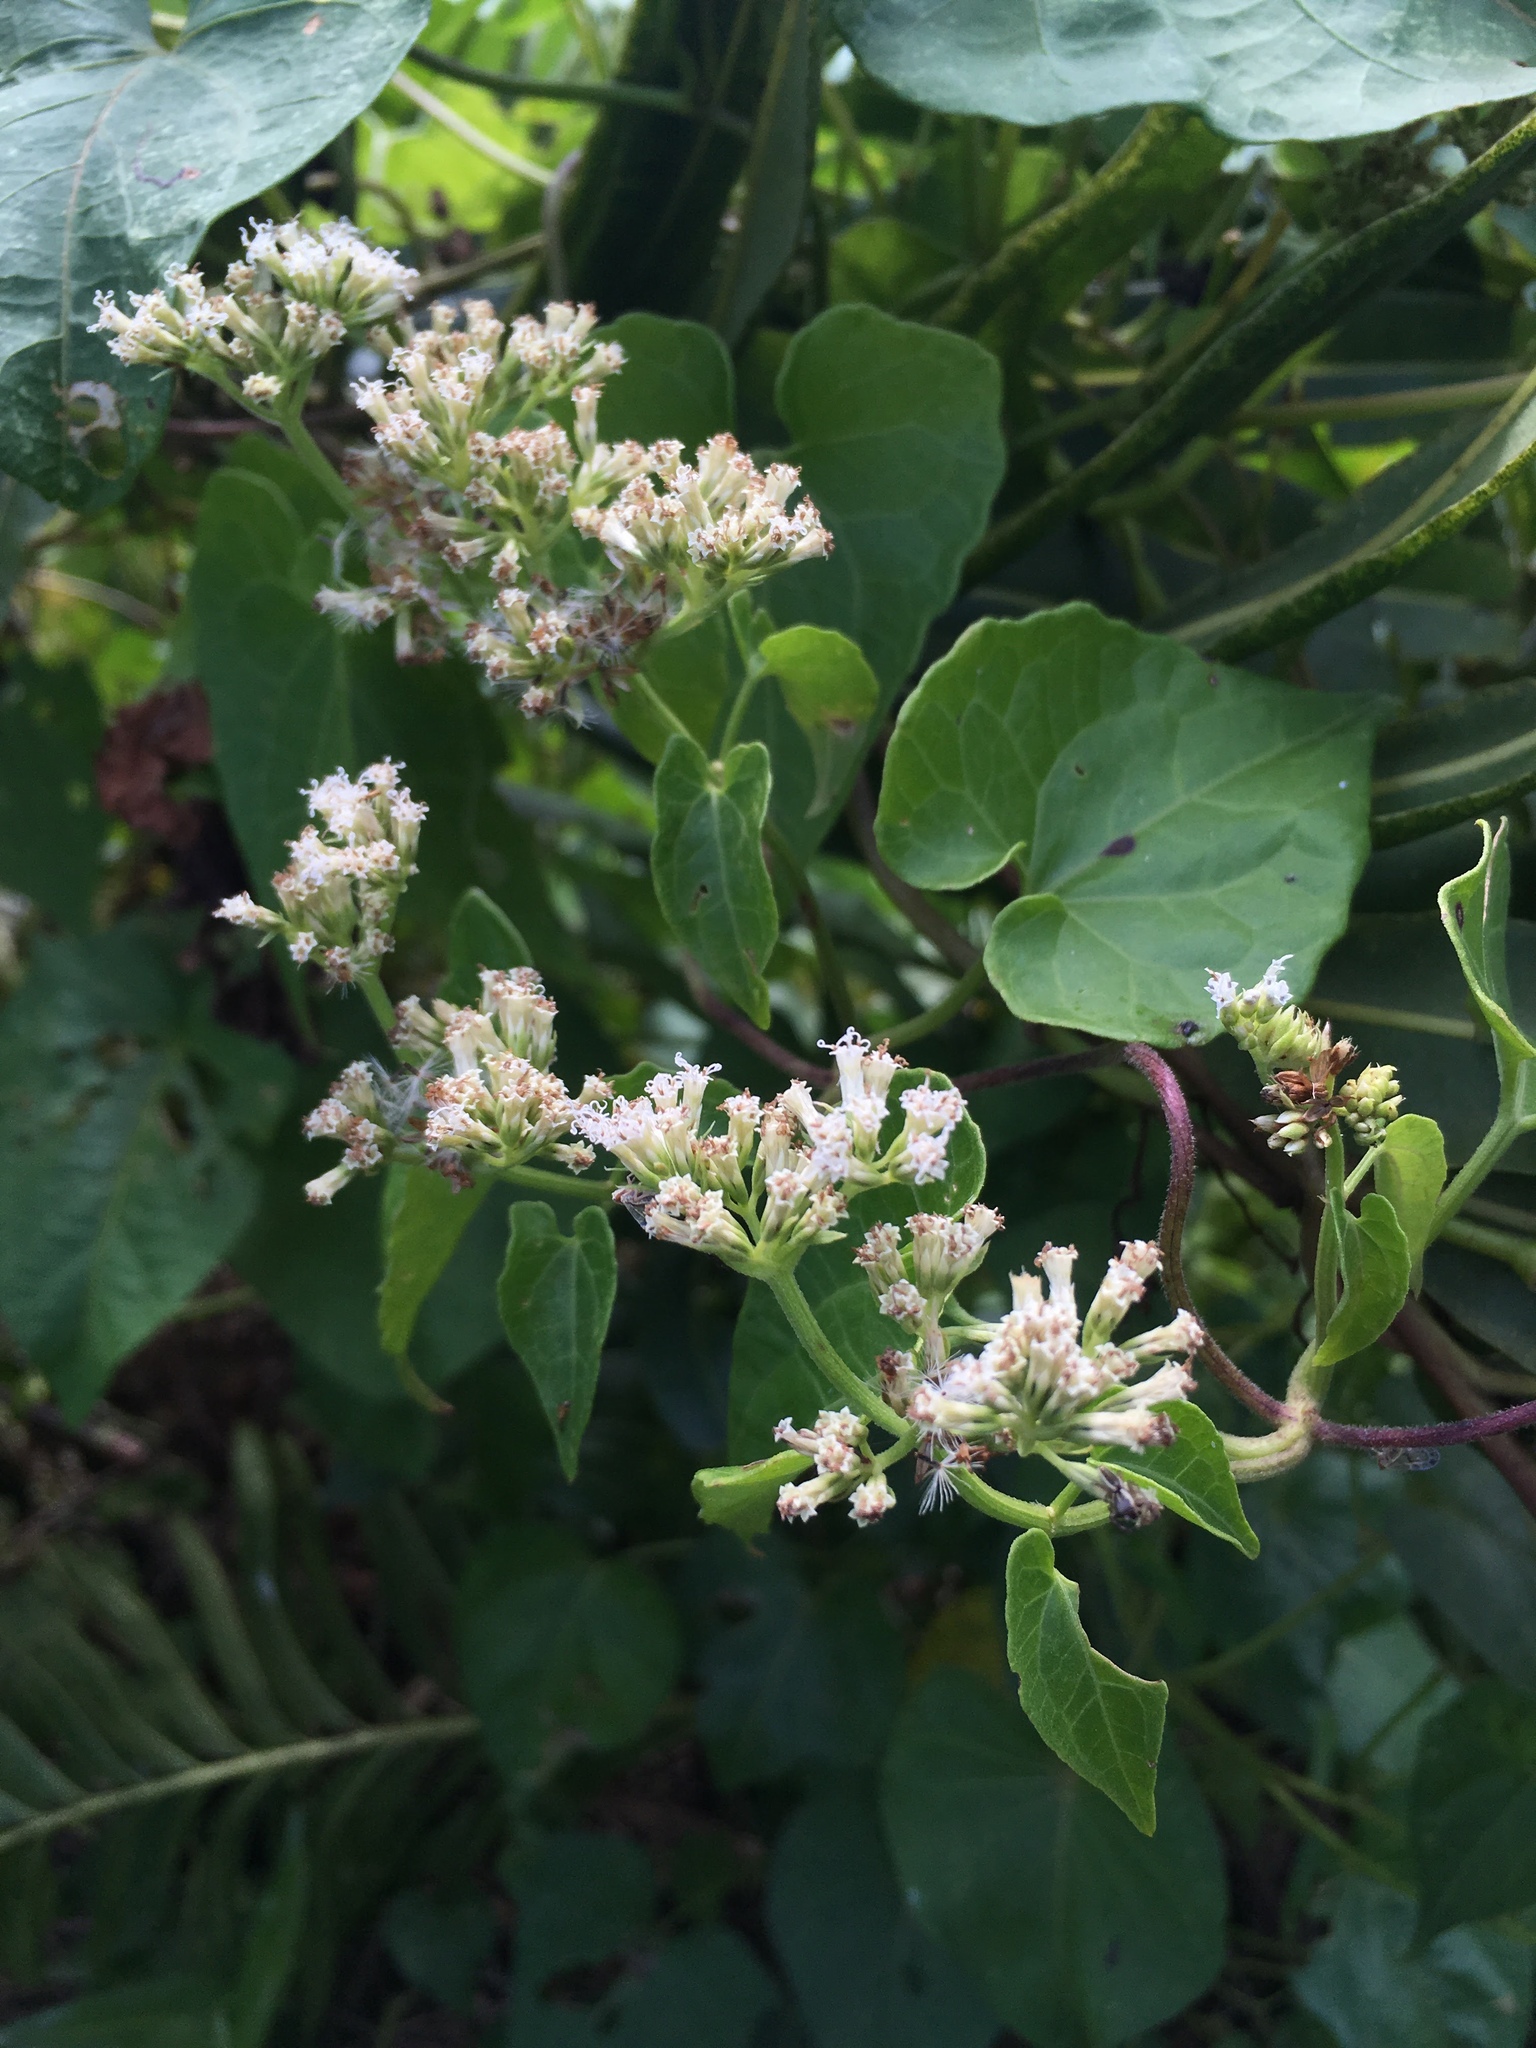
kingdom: Plantae
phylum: Tracheophyta
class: Magnoliopsida
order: Asterales
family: Asteraceae
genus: Mikania
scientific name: Mikania scandens
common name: Climbing hempvine
